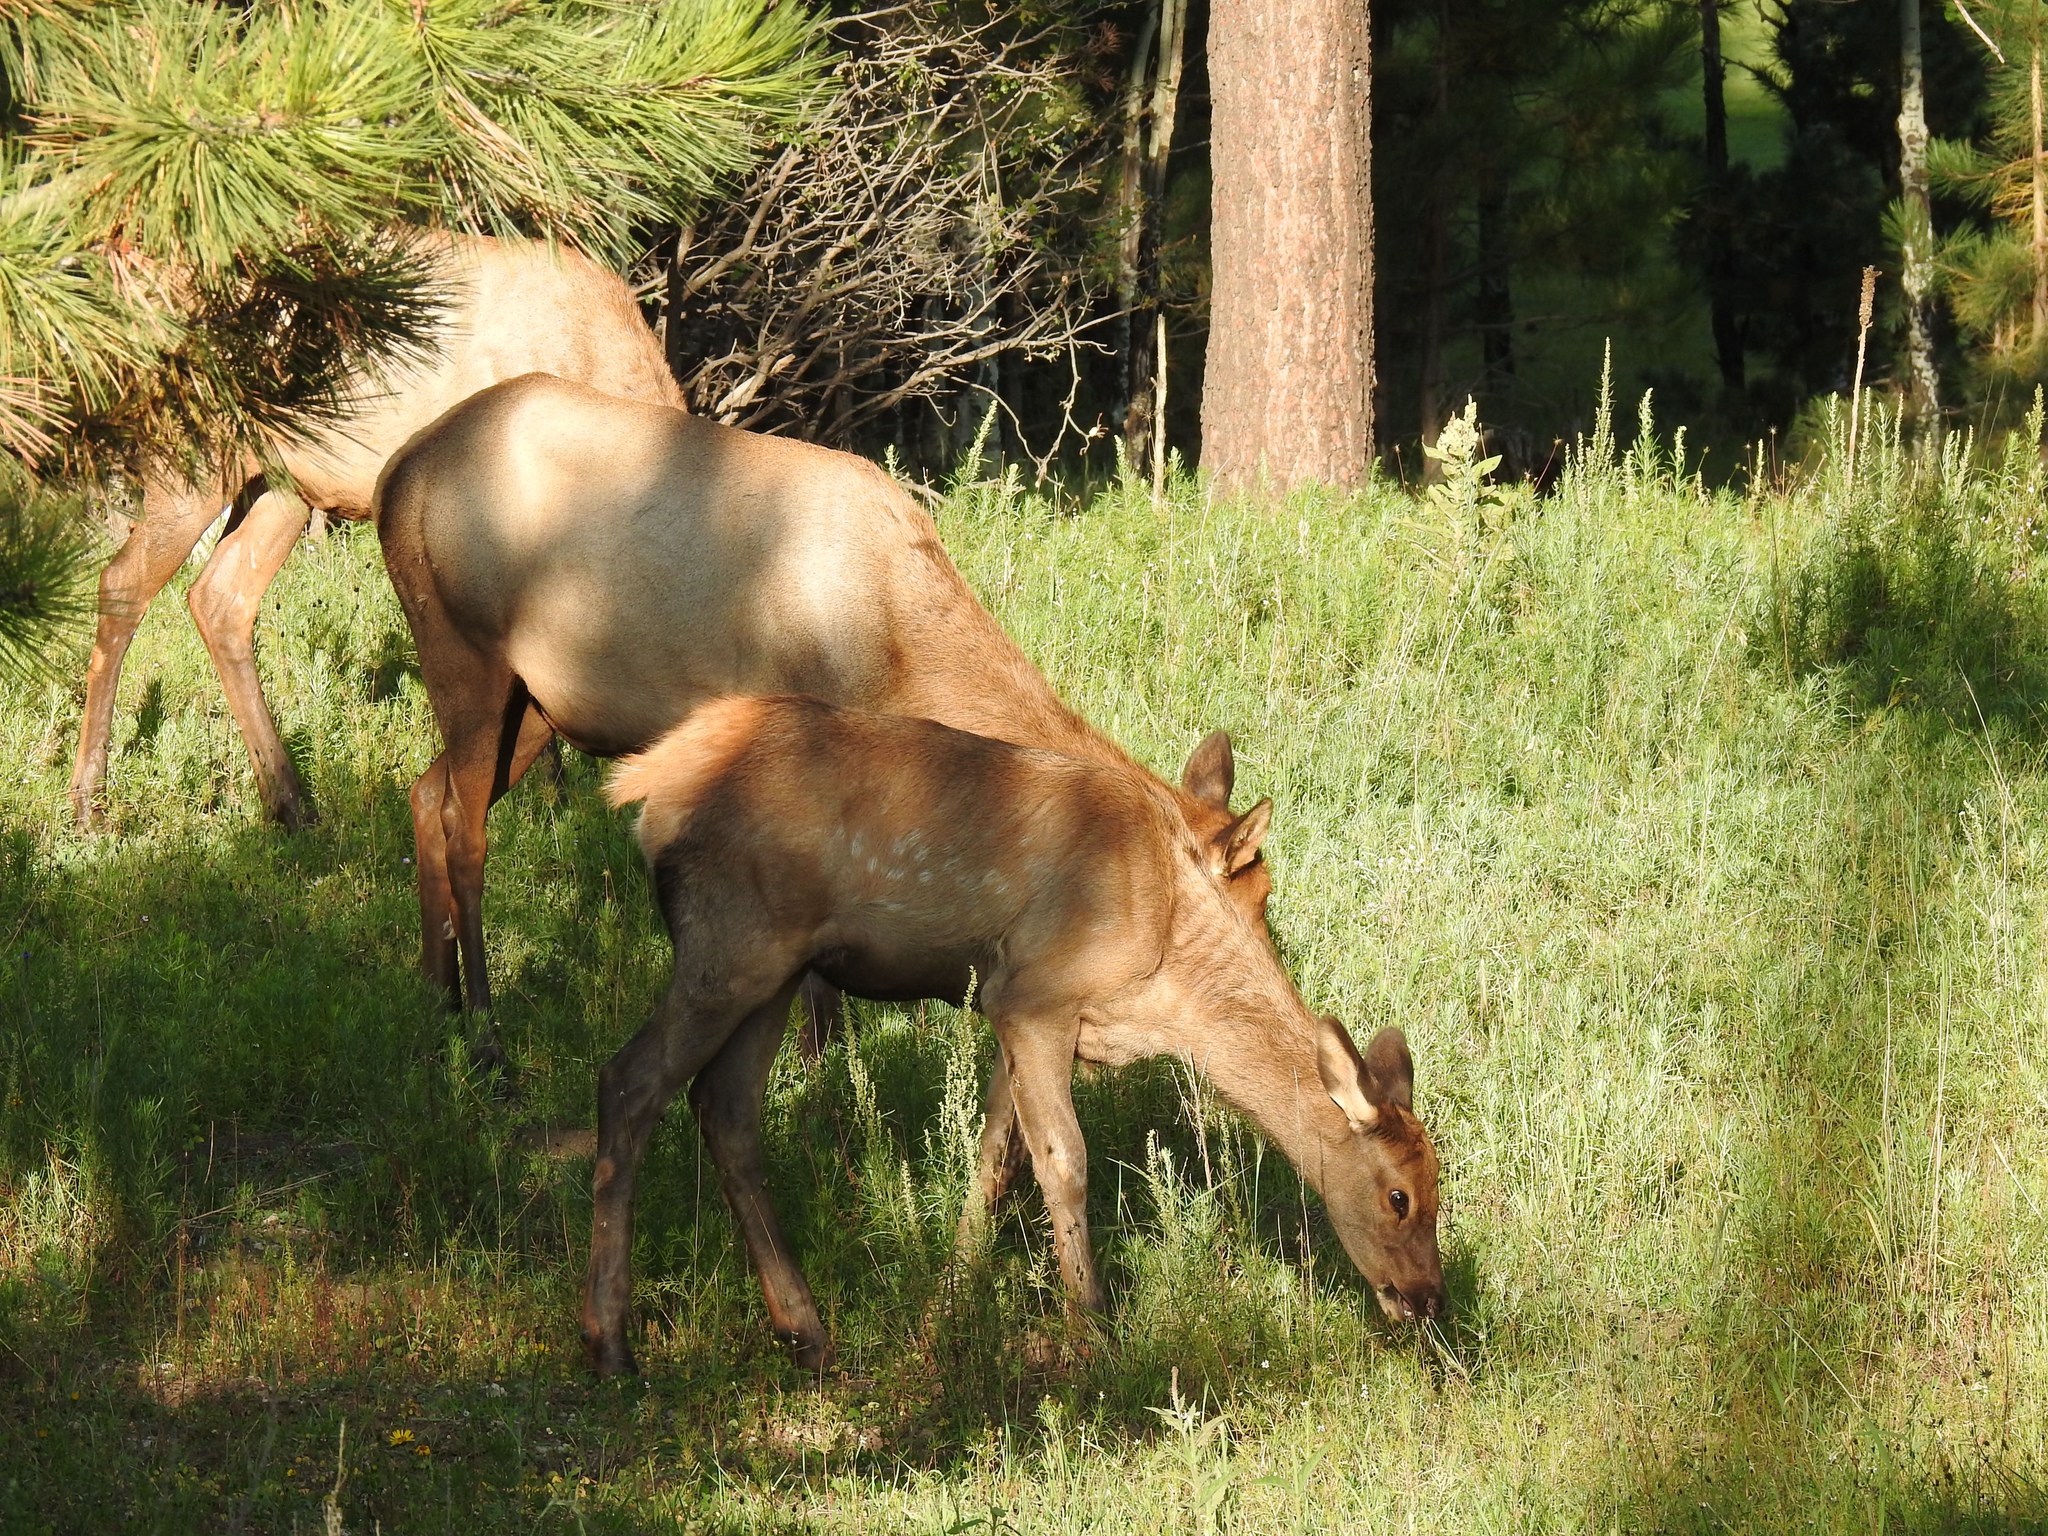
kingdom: Animalia
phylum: Chordata
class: Mammalia
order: Artiodactyla
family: Cervidae
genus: Cervus
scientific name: Cervus elaphus
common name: Red deer
